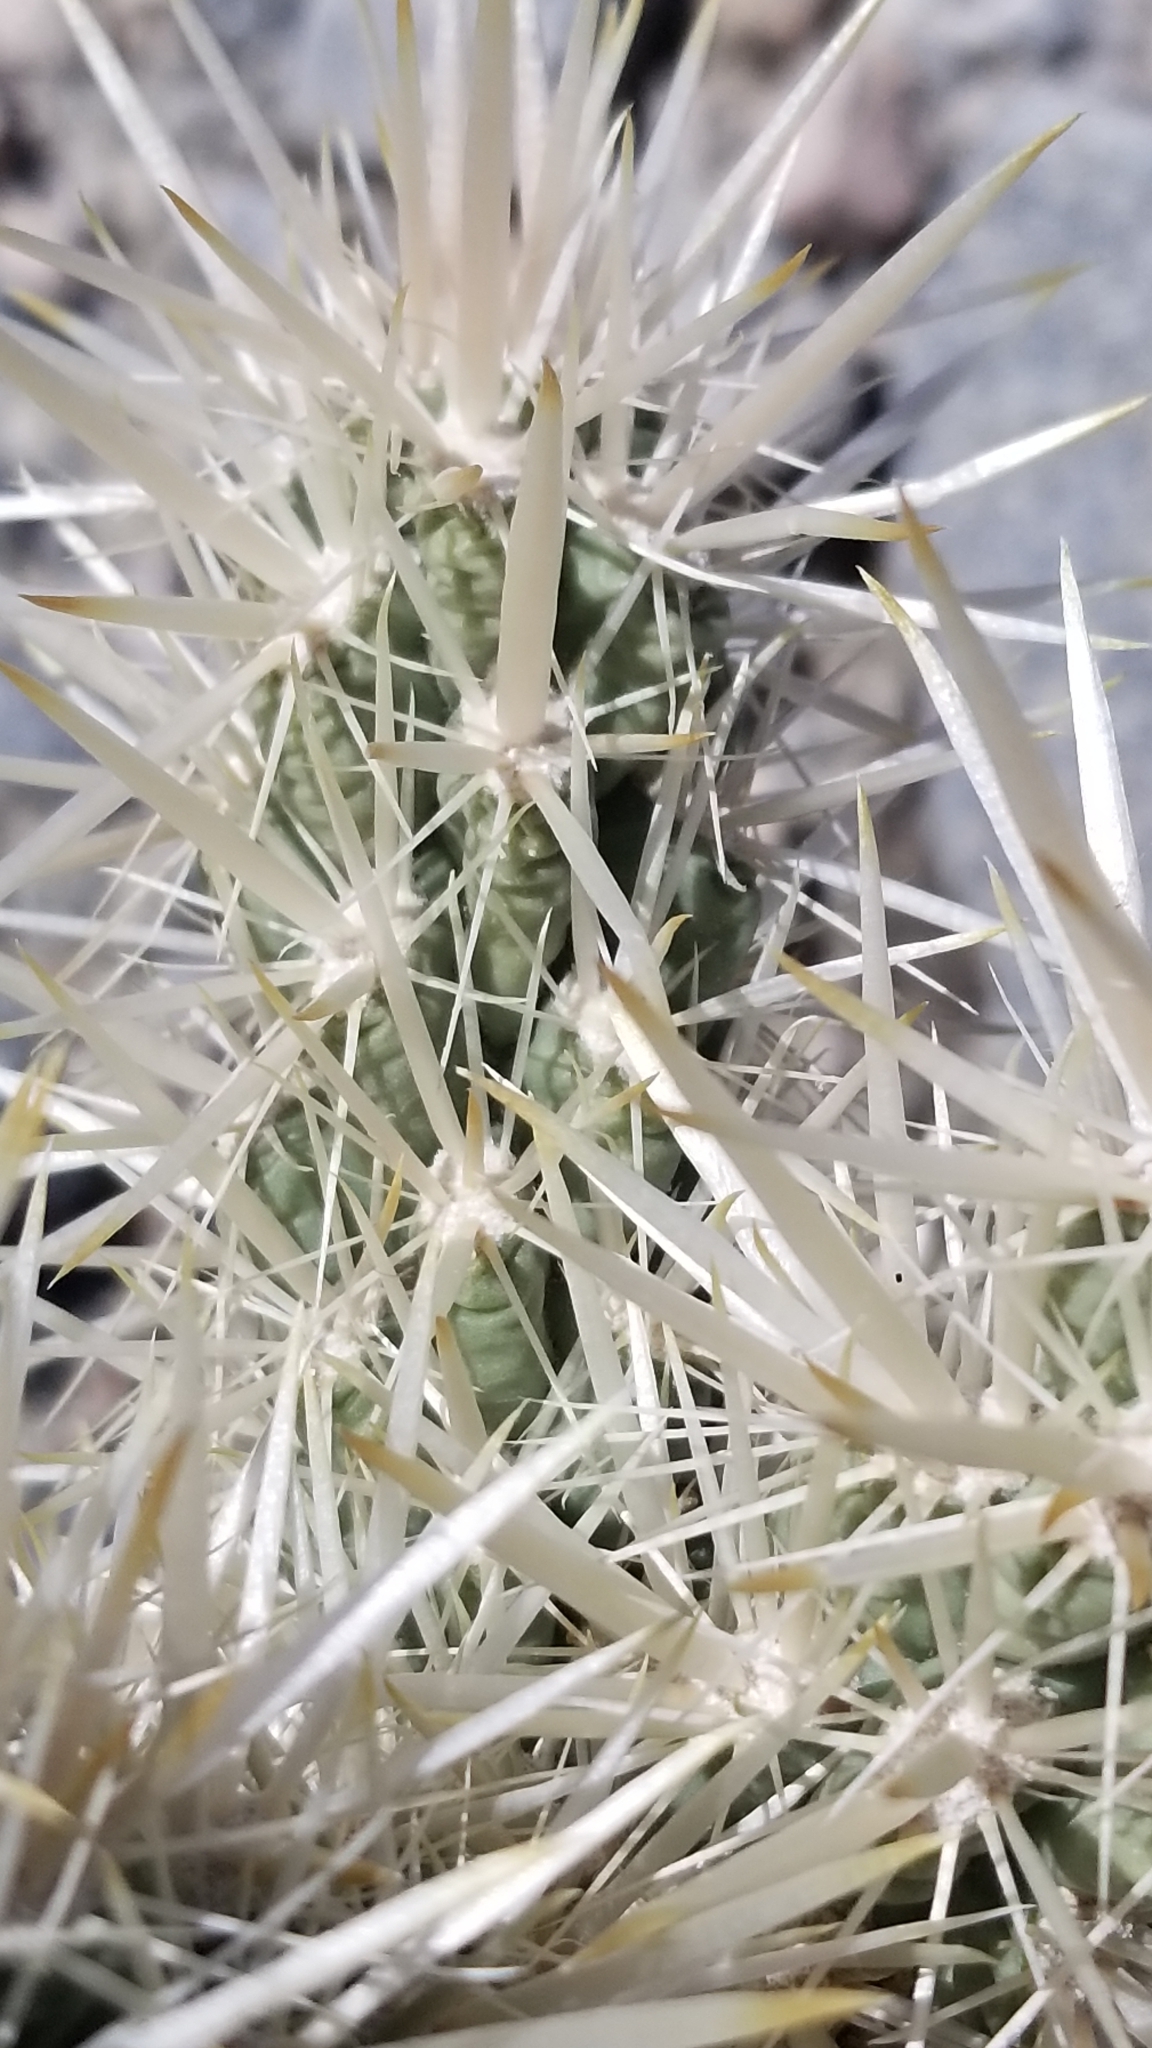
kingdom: Plantae
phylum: Tracheophyta
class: Magnoliopsida
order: Caryophyllales
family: Cactaceae
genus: Cylindropuntia
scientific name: Cylindropuntia echinocarpa
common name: Ground cholla
